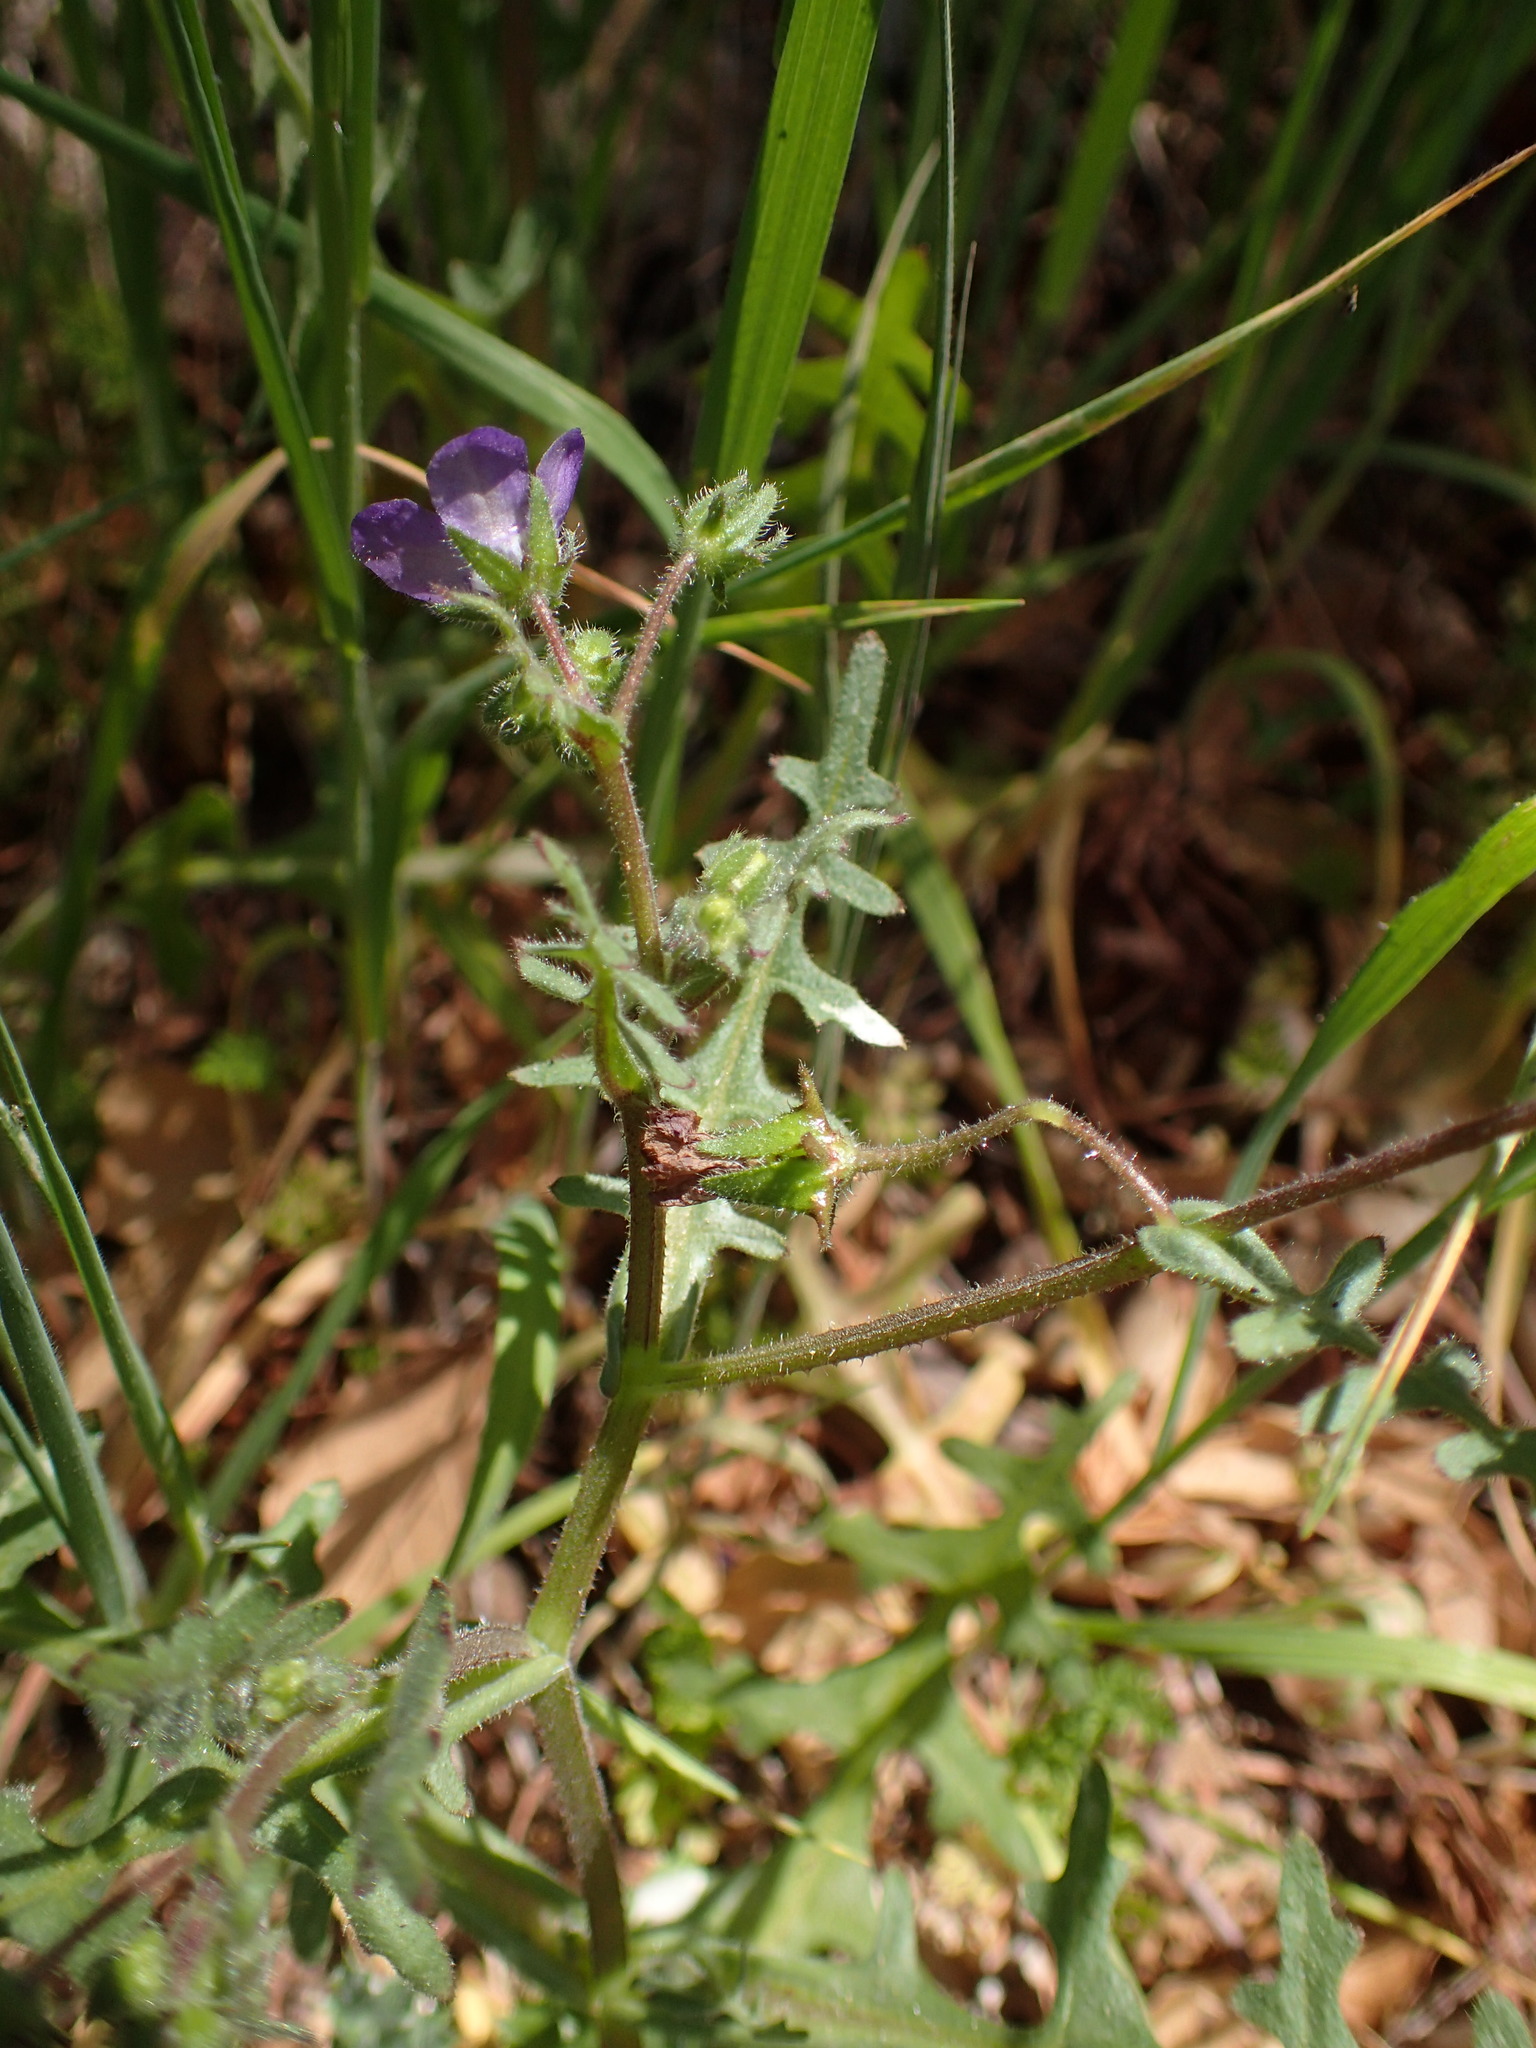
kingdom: Plantae
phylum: Tracheophyta
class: Magnoliopsida
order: Boraginales
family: Hydrophyllaceae
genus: Pholistoma
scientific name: Pholistoma auritum
